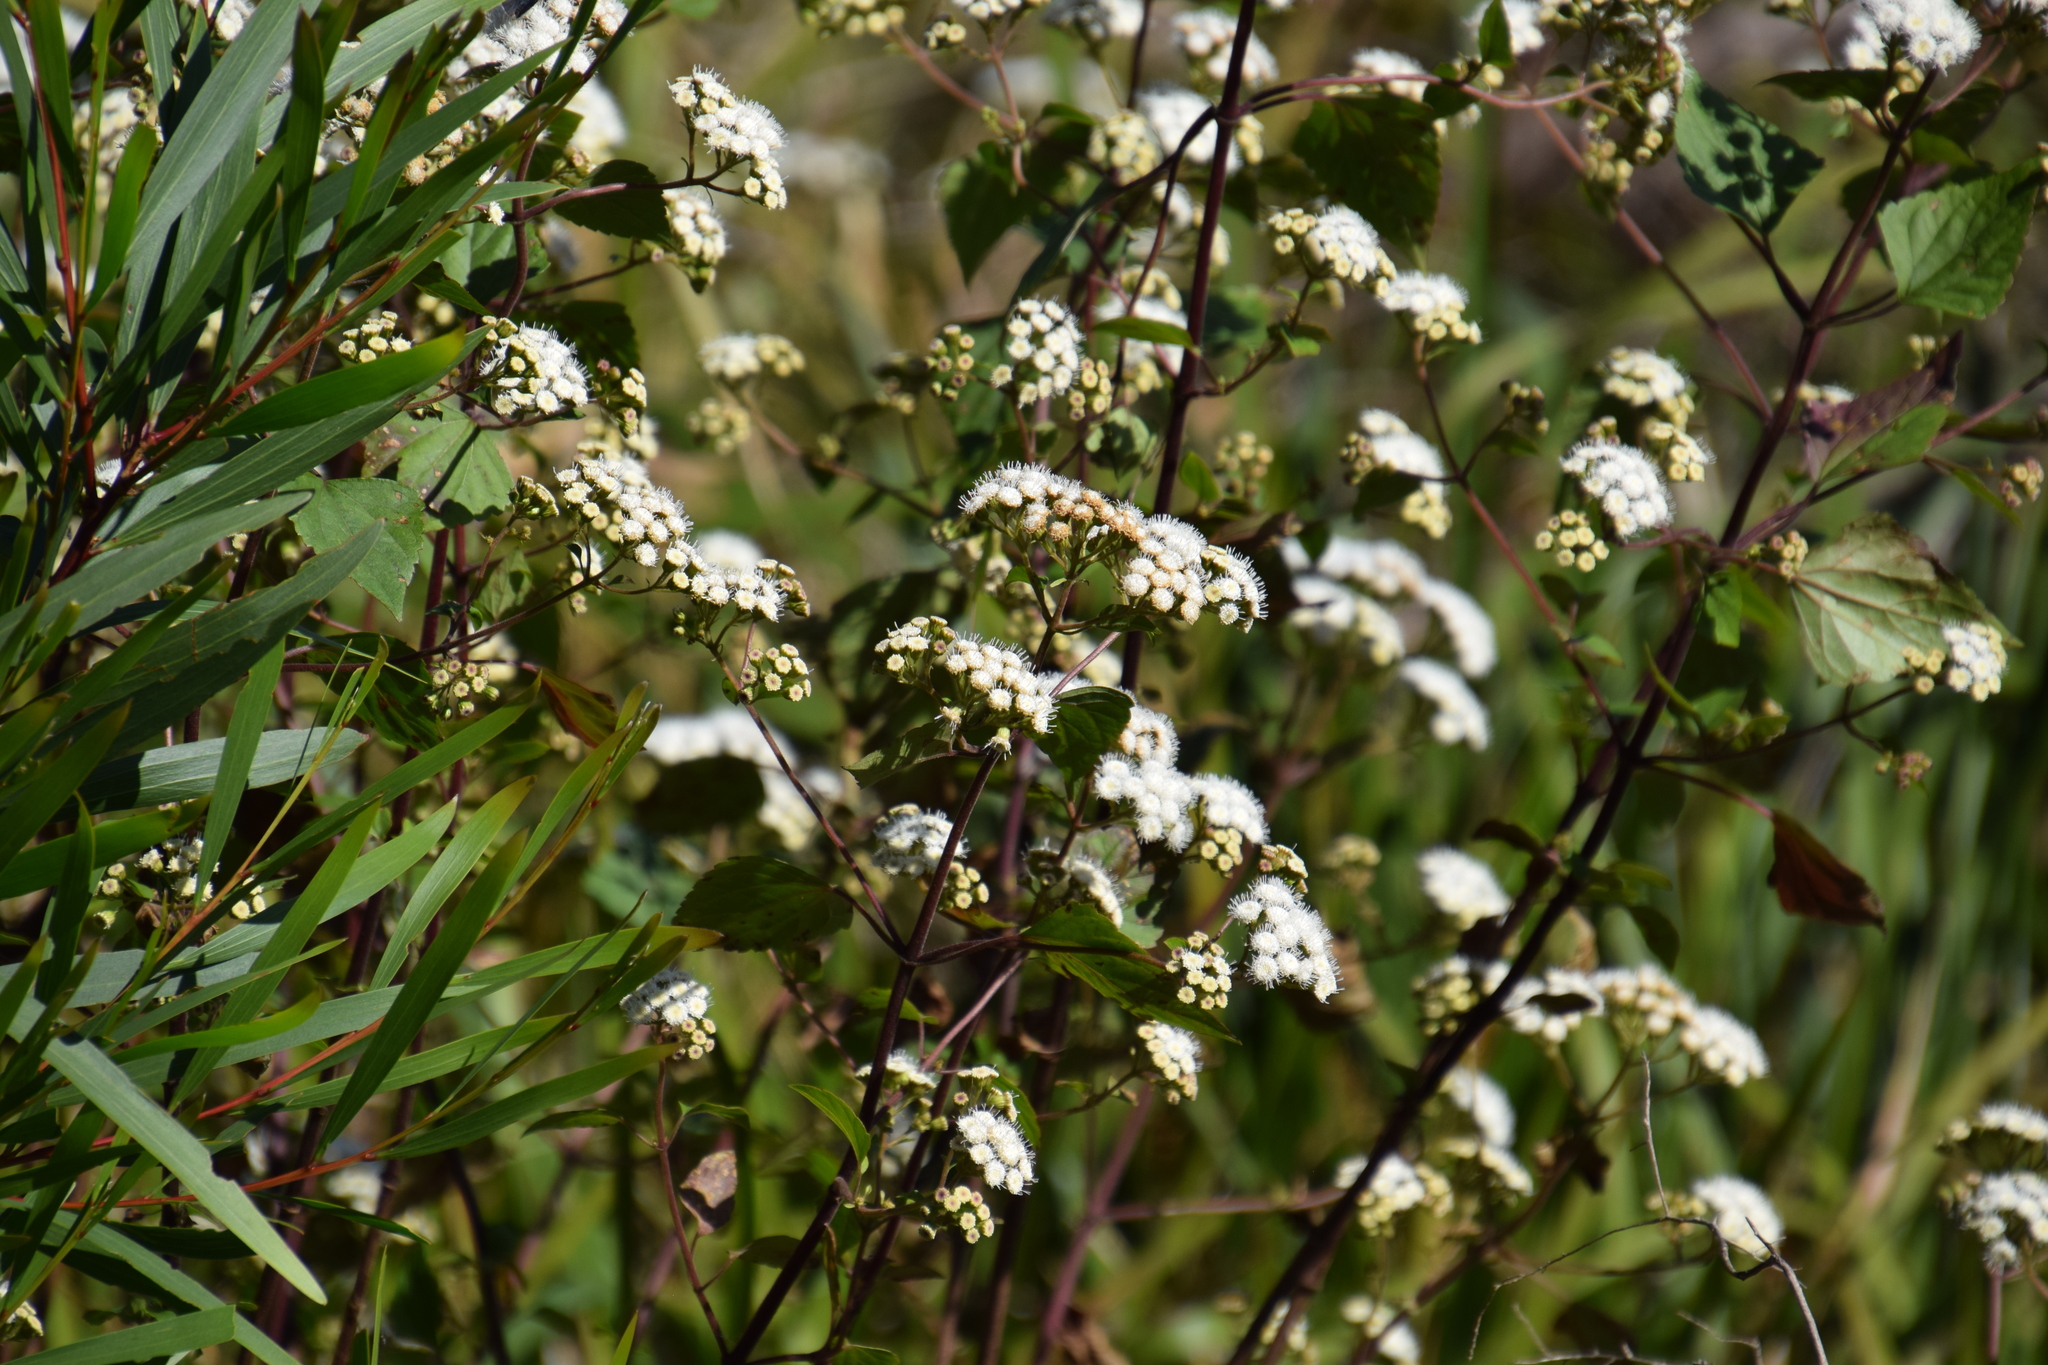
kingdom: Plantae
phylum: Tracheophyta
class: Magnoliopsida
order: Asterales
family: Asteraceae
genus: Ageratina
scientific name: Ageratina adenophora
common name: Sticky snakeroot
